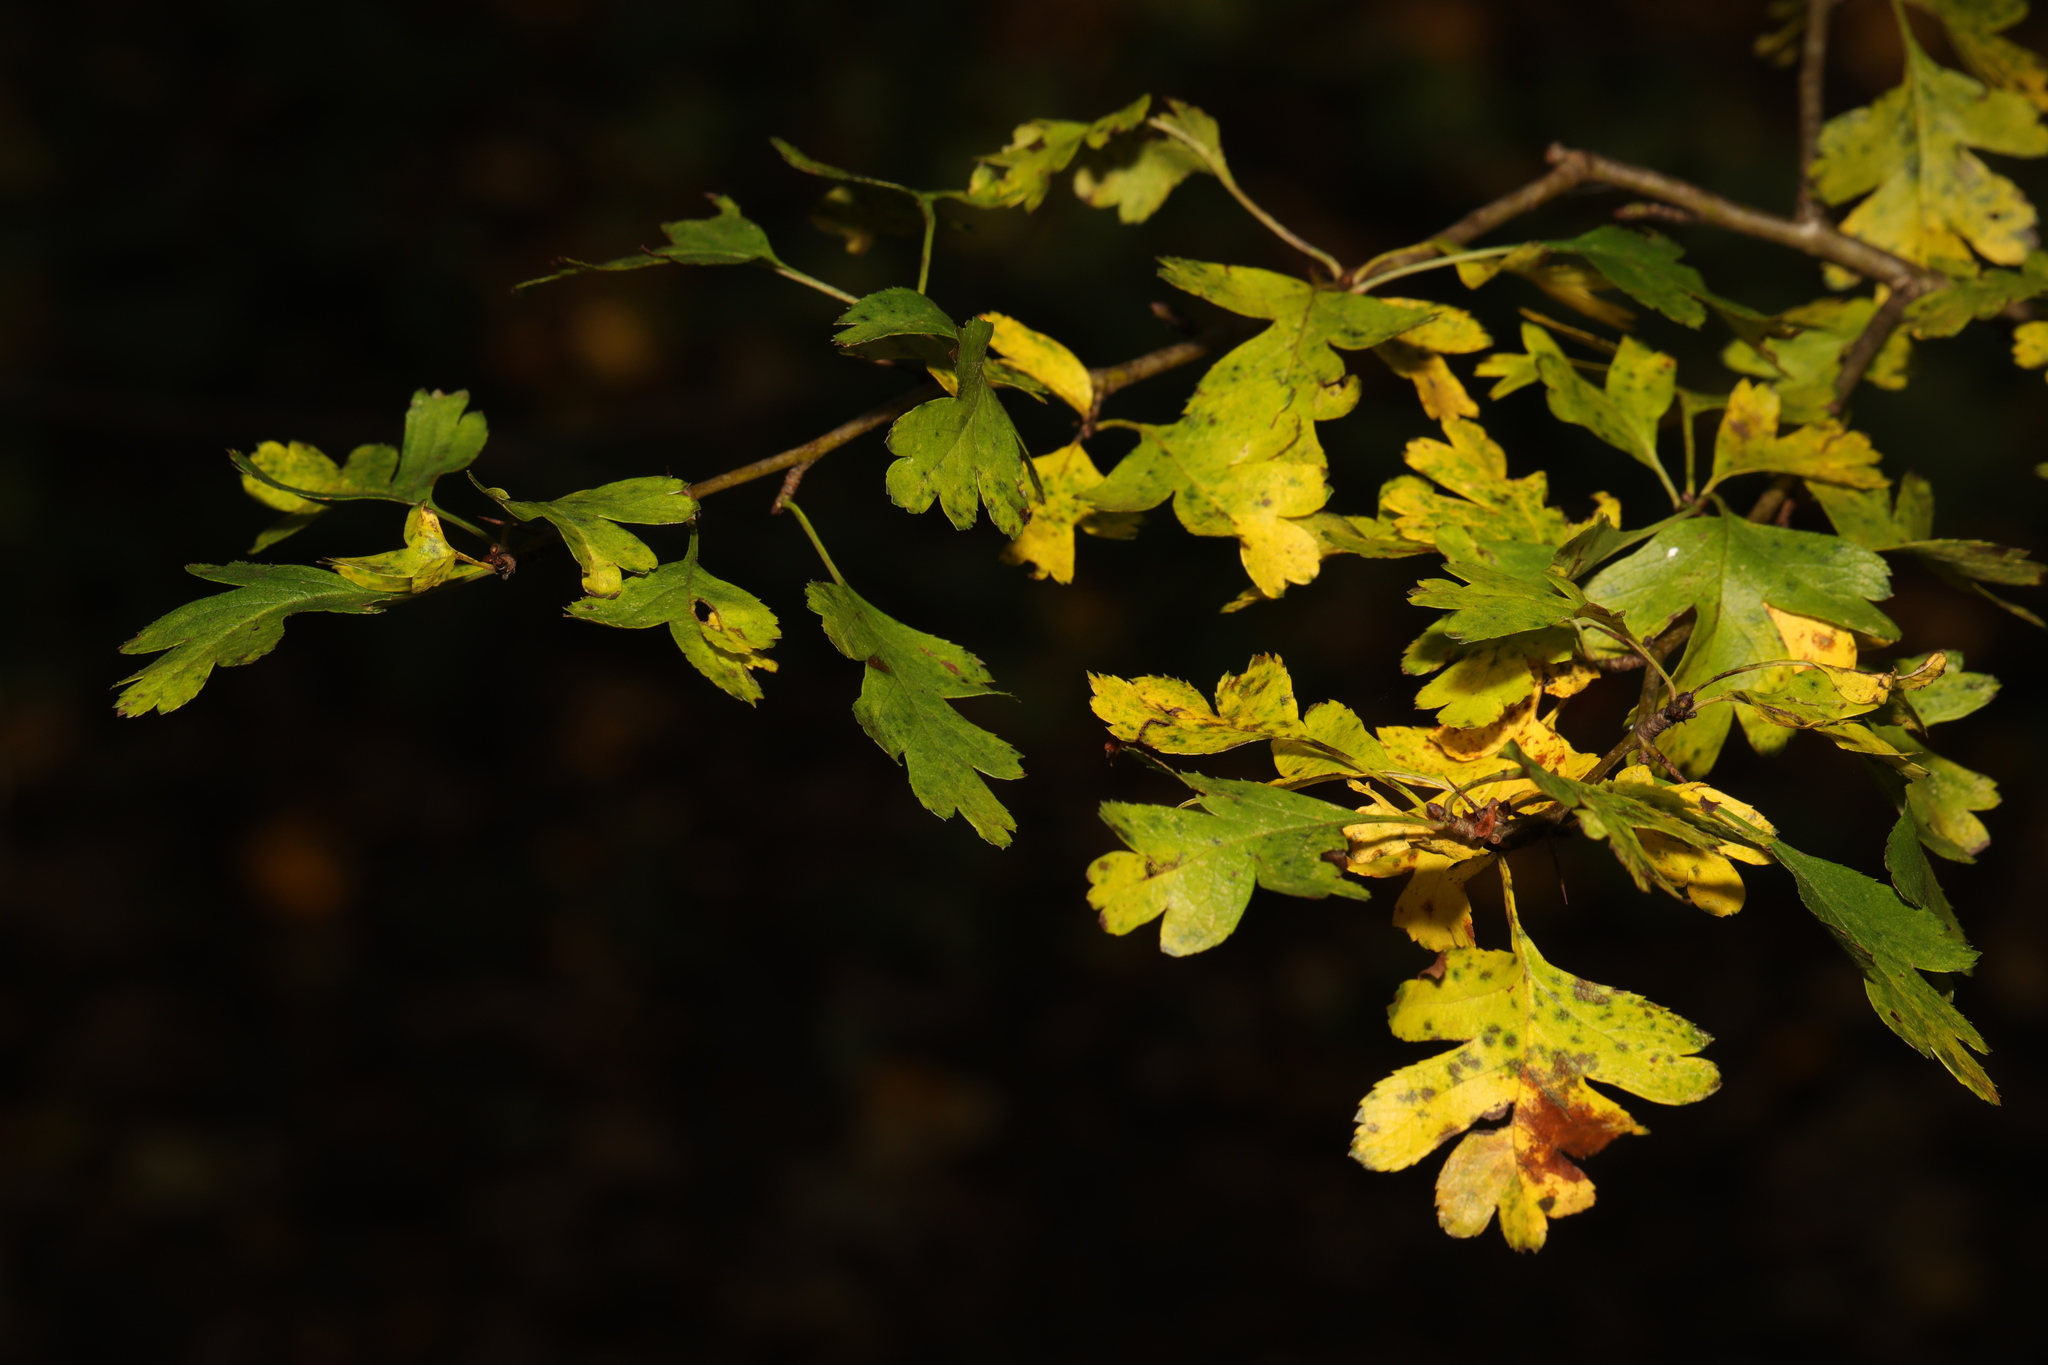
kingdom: Plantae
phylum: Tracheophyta
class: Magnoliopsida
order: Rosales
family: Rosaceae
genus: Crataegus
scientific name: Crataegus monogyna
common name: Hawthorn
